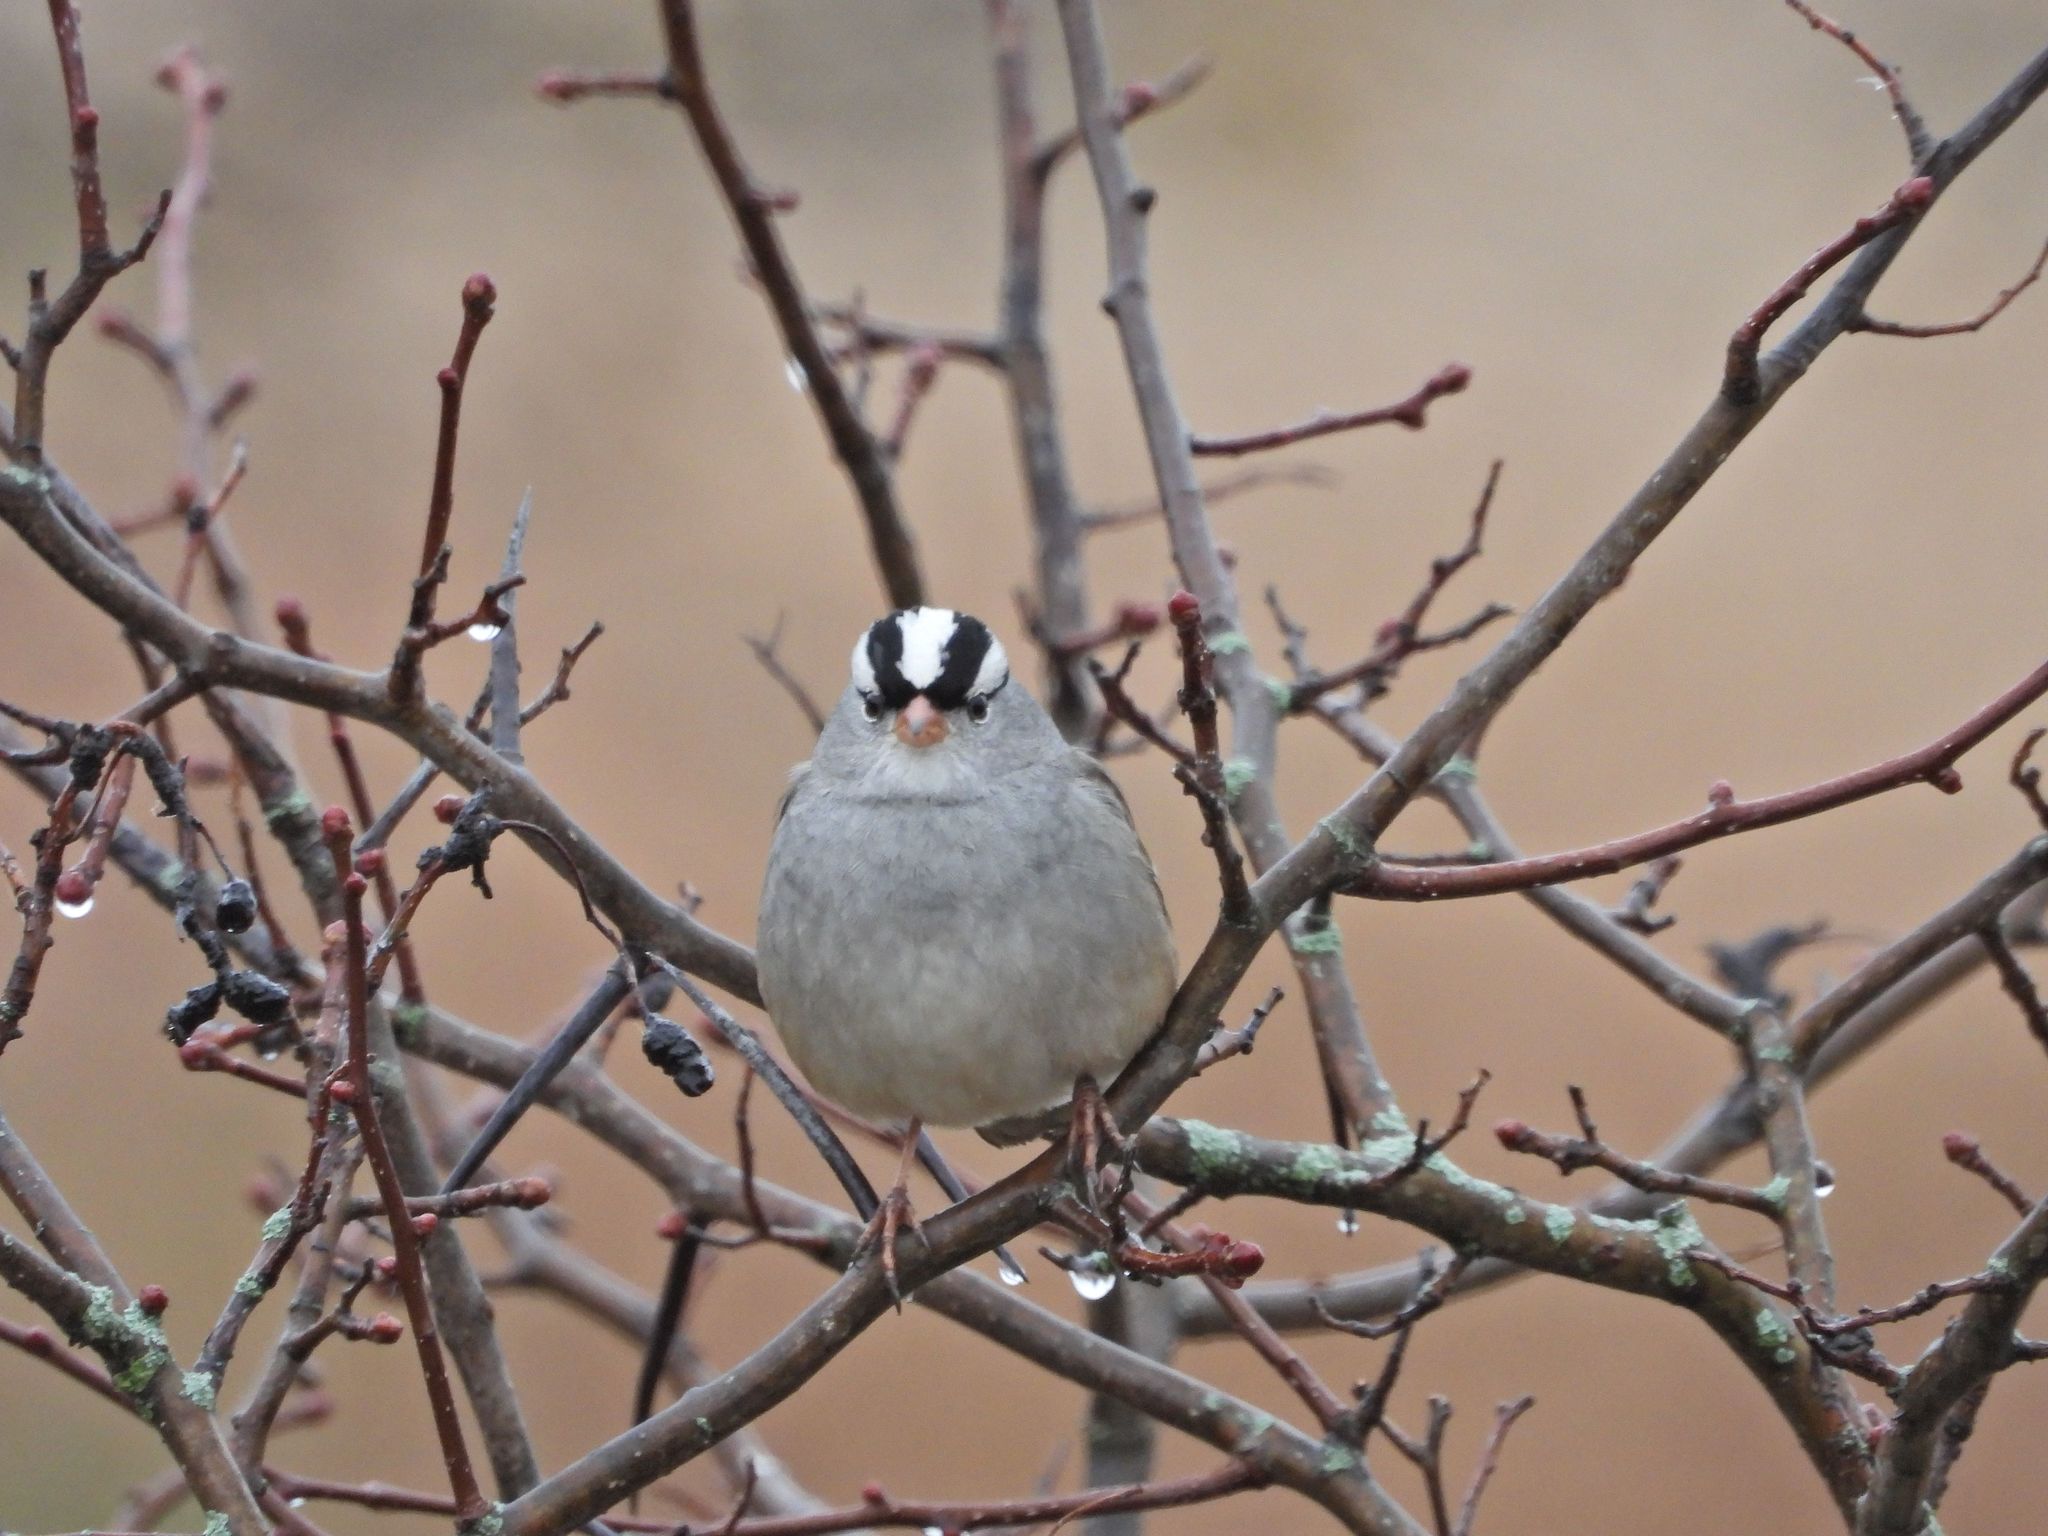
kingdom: Animalia
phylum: Chordata
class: Aves
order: Passeriformes
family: Passerellidae
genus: Zonotrichia
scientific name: Zonotrichia leucophrys
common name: White-crowned sparrow
